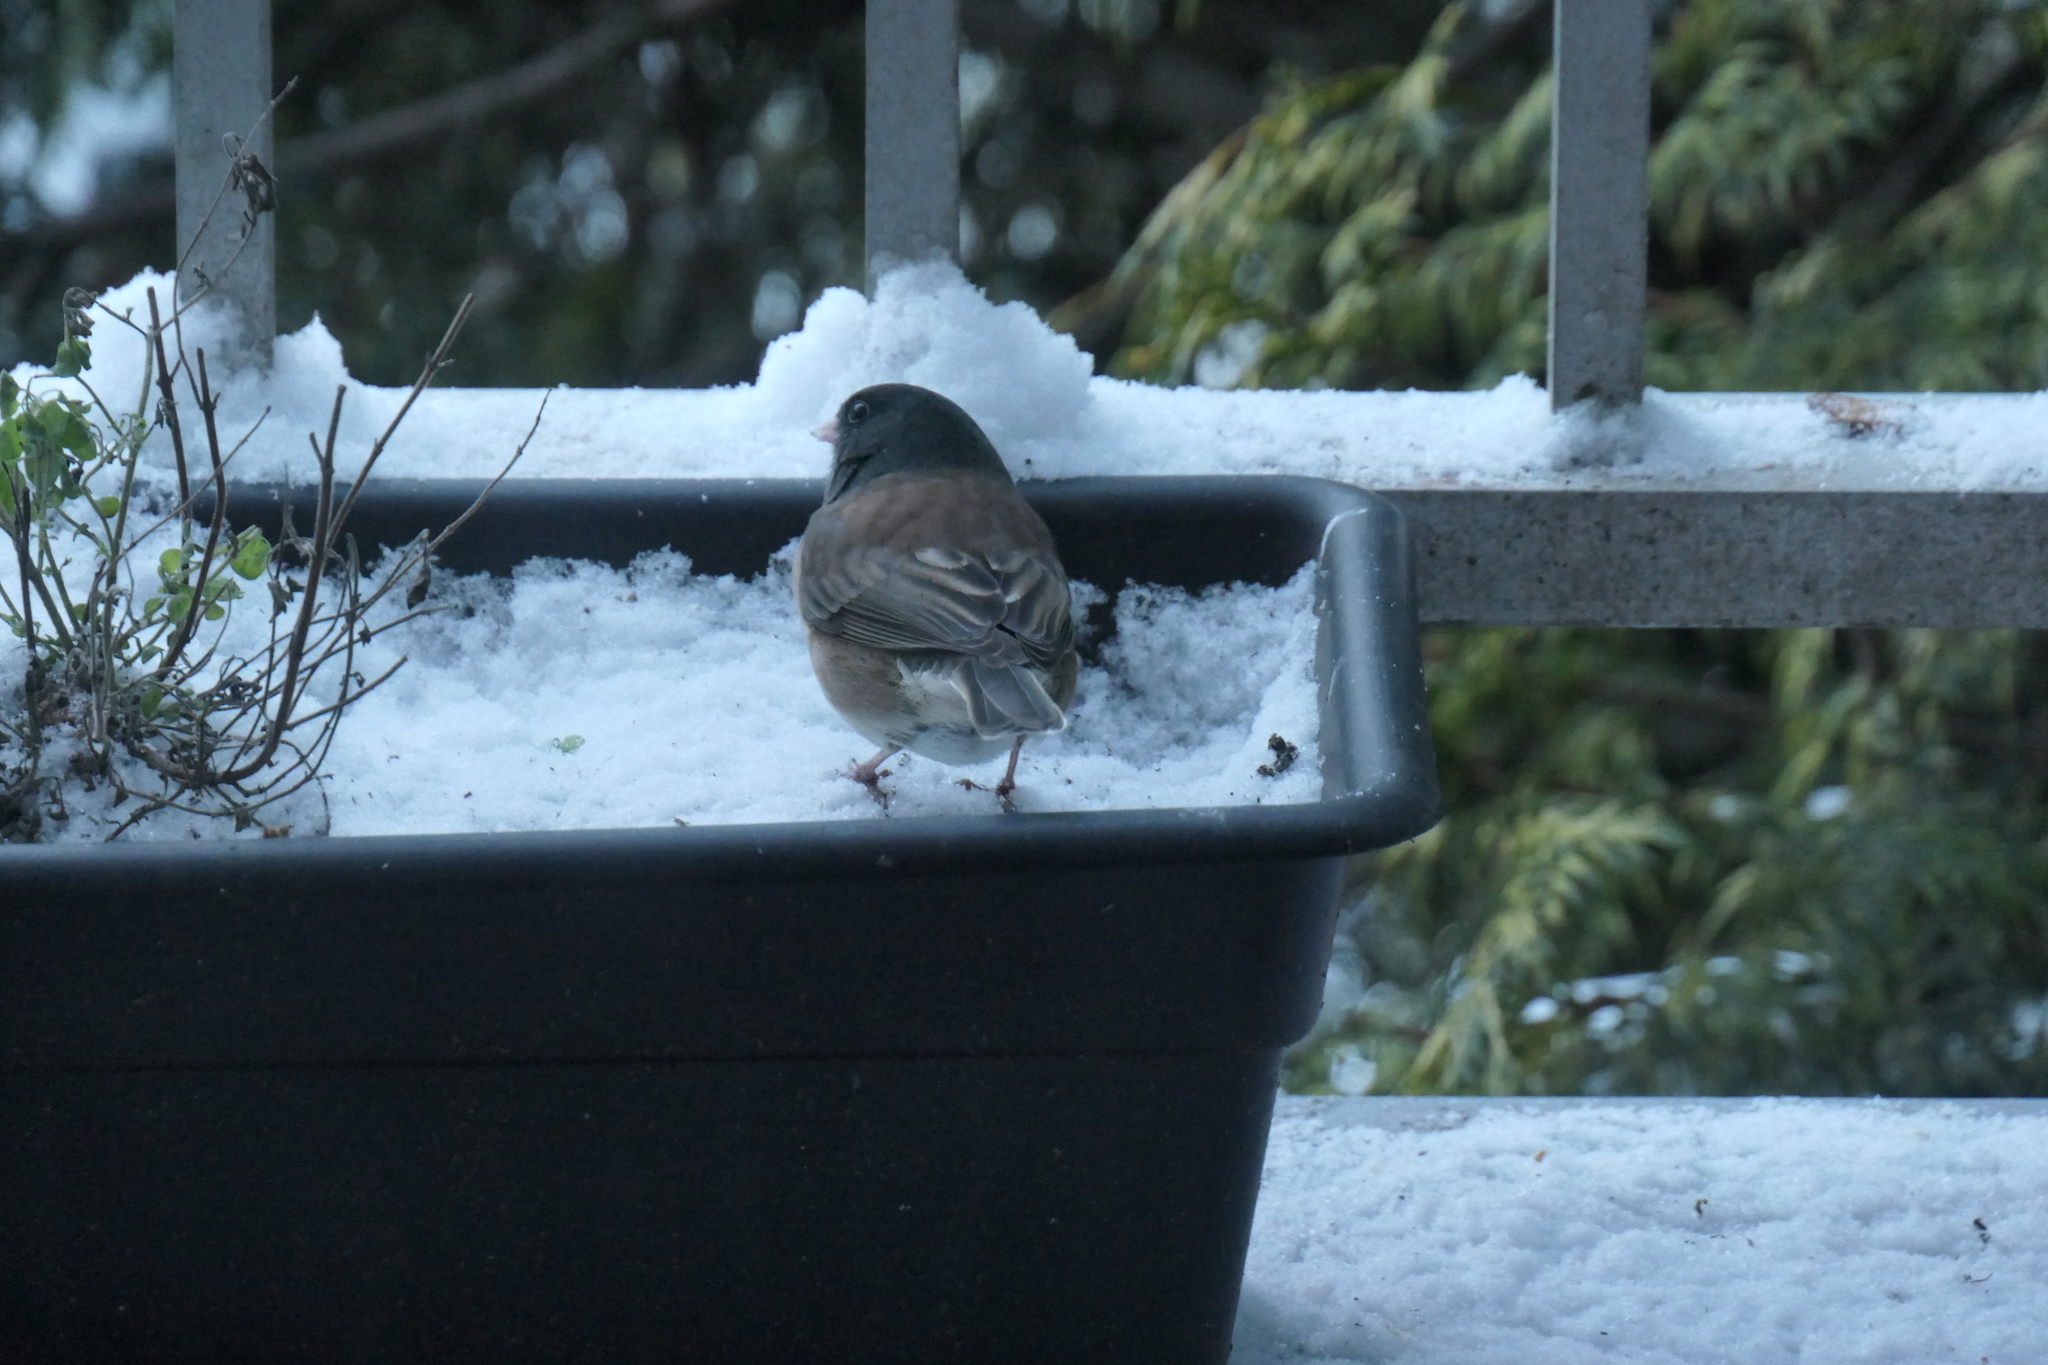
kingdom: Animalia
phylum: Chordata
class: Aves
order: Passeriformes
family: Passerellidae
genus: Junco
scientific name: Junco hyemalis
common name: Dark-eyed junco
